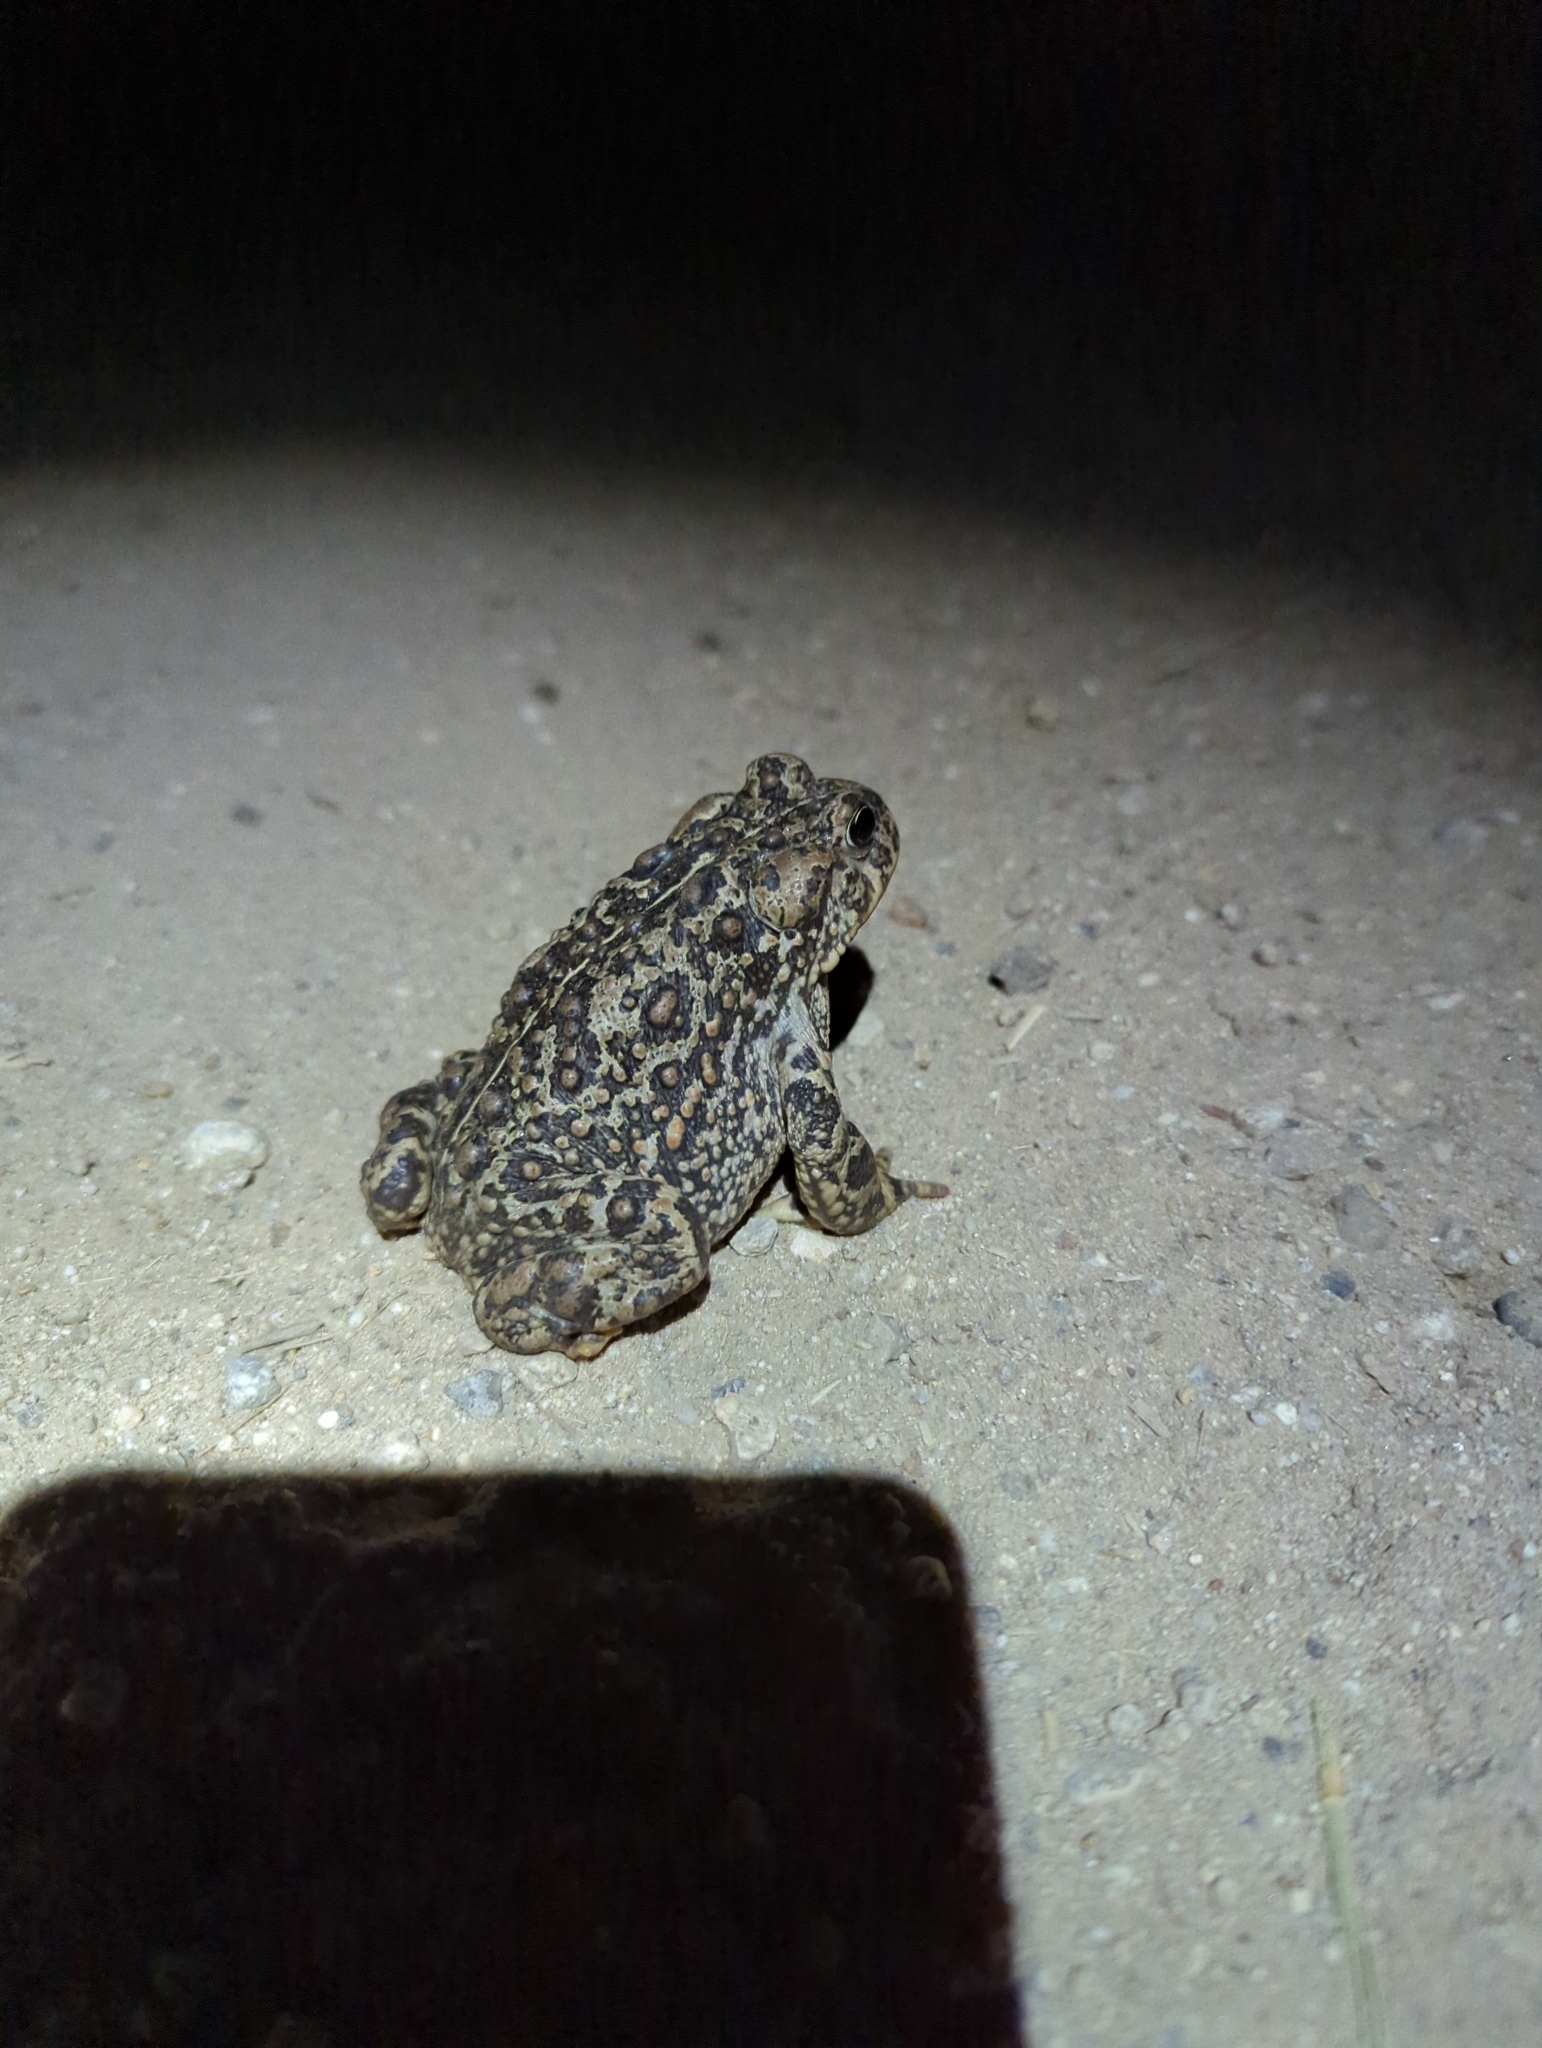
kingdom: Animalia
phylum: Chordata
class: Amphibia
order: Anura
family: Bufonidae
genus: Anaxyrus
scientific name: Anaxyrus boreas
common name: Western toad
